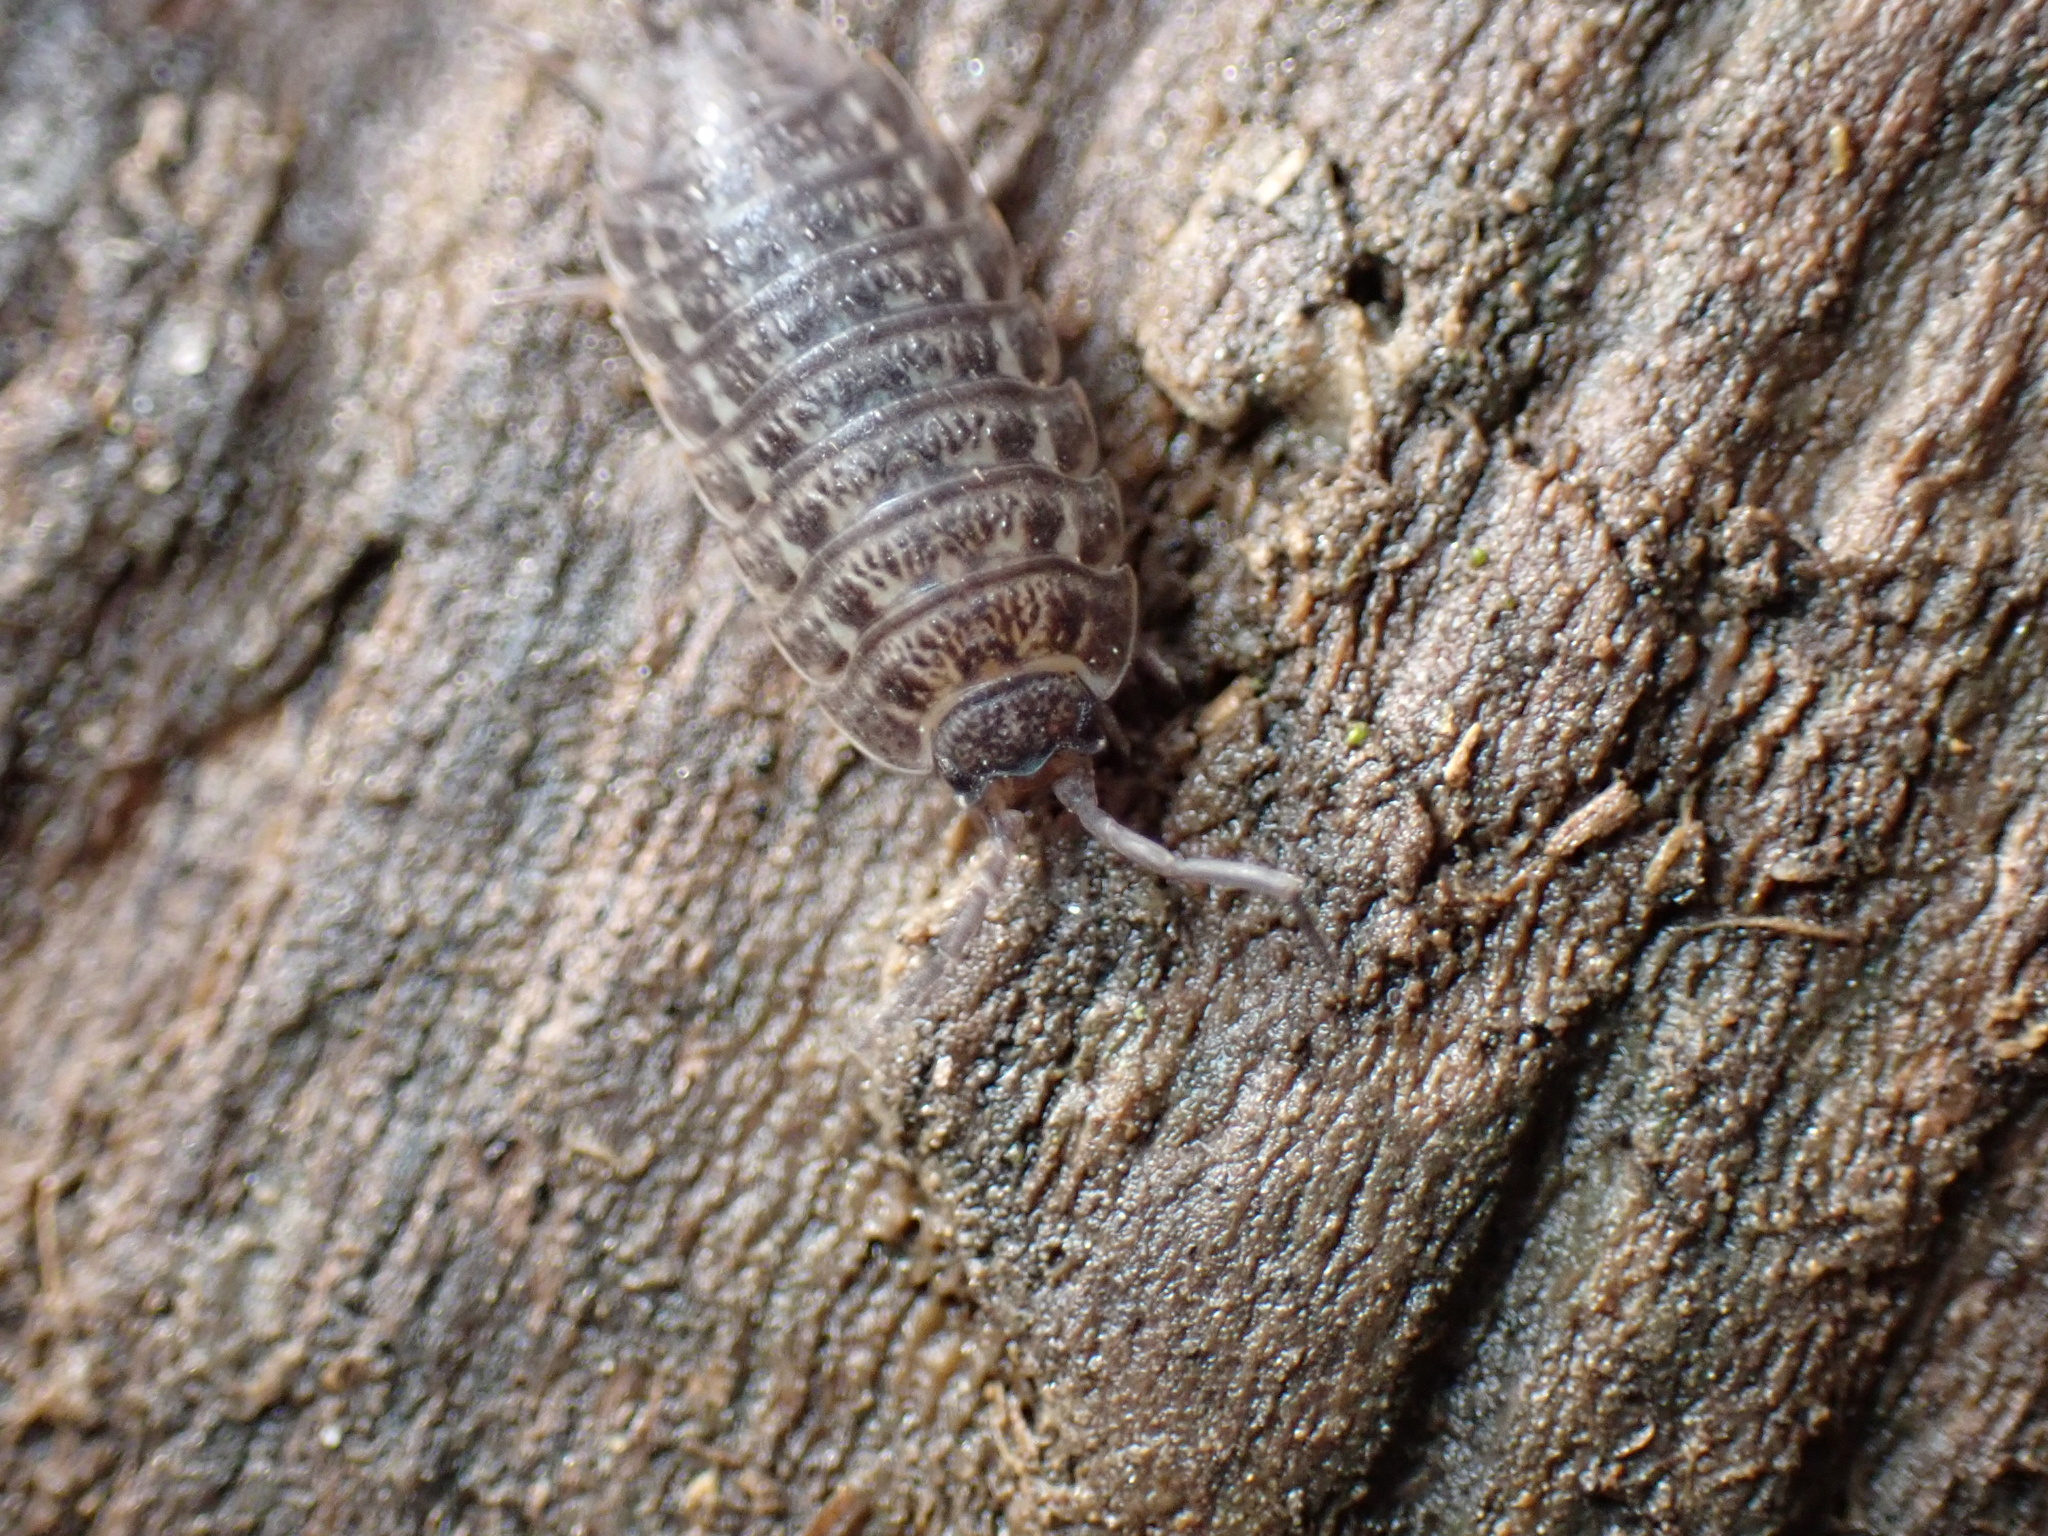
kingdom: Animalia
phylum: Arthropoda
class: Malacostraca
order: Isopoda
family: Trachelipodidae
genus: Trachelipus
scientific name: Trachelipus rathkii
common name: Isopod
